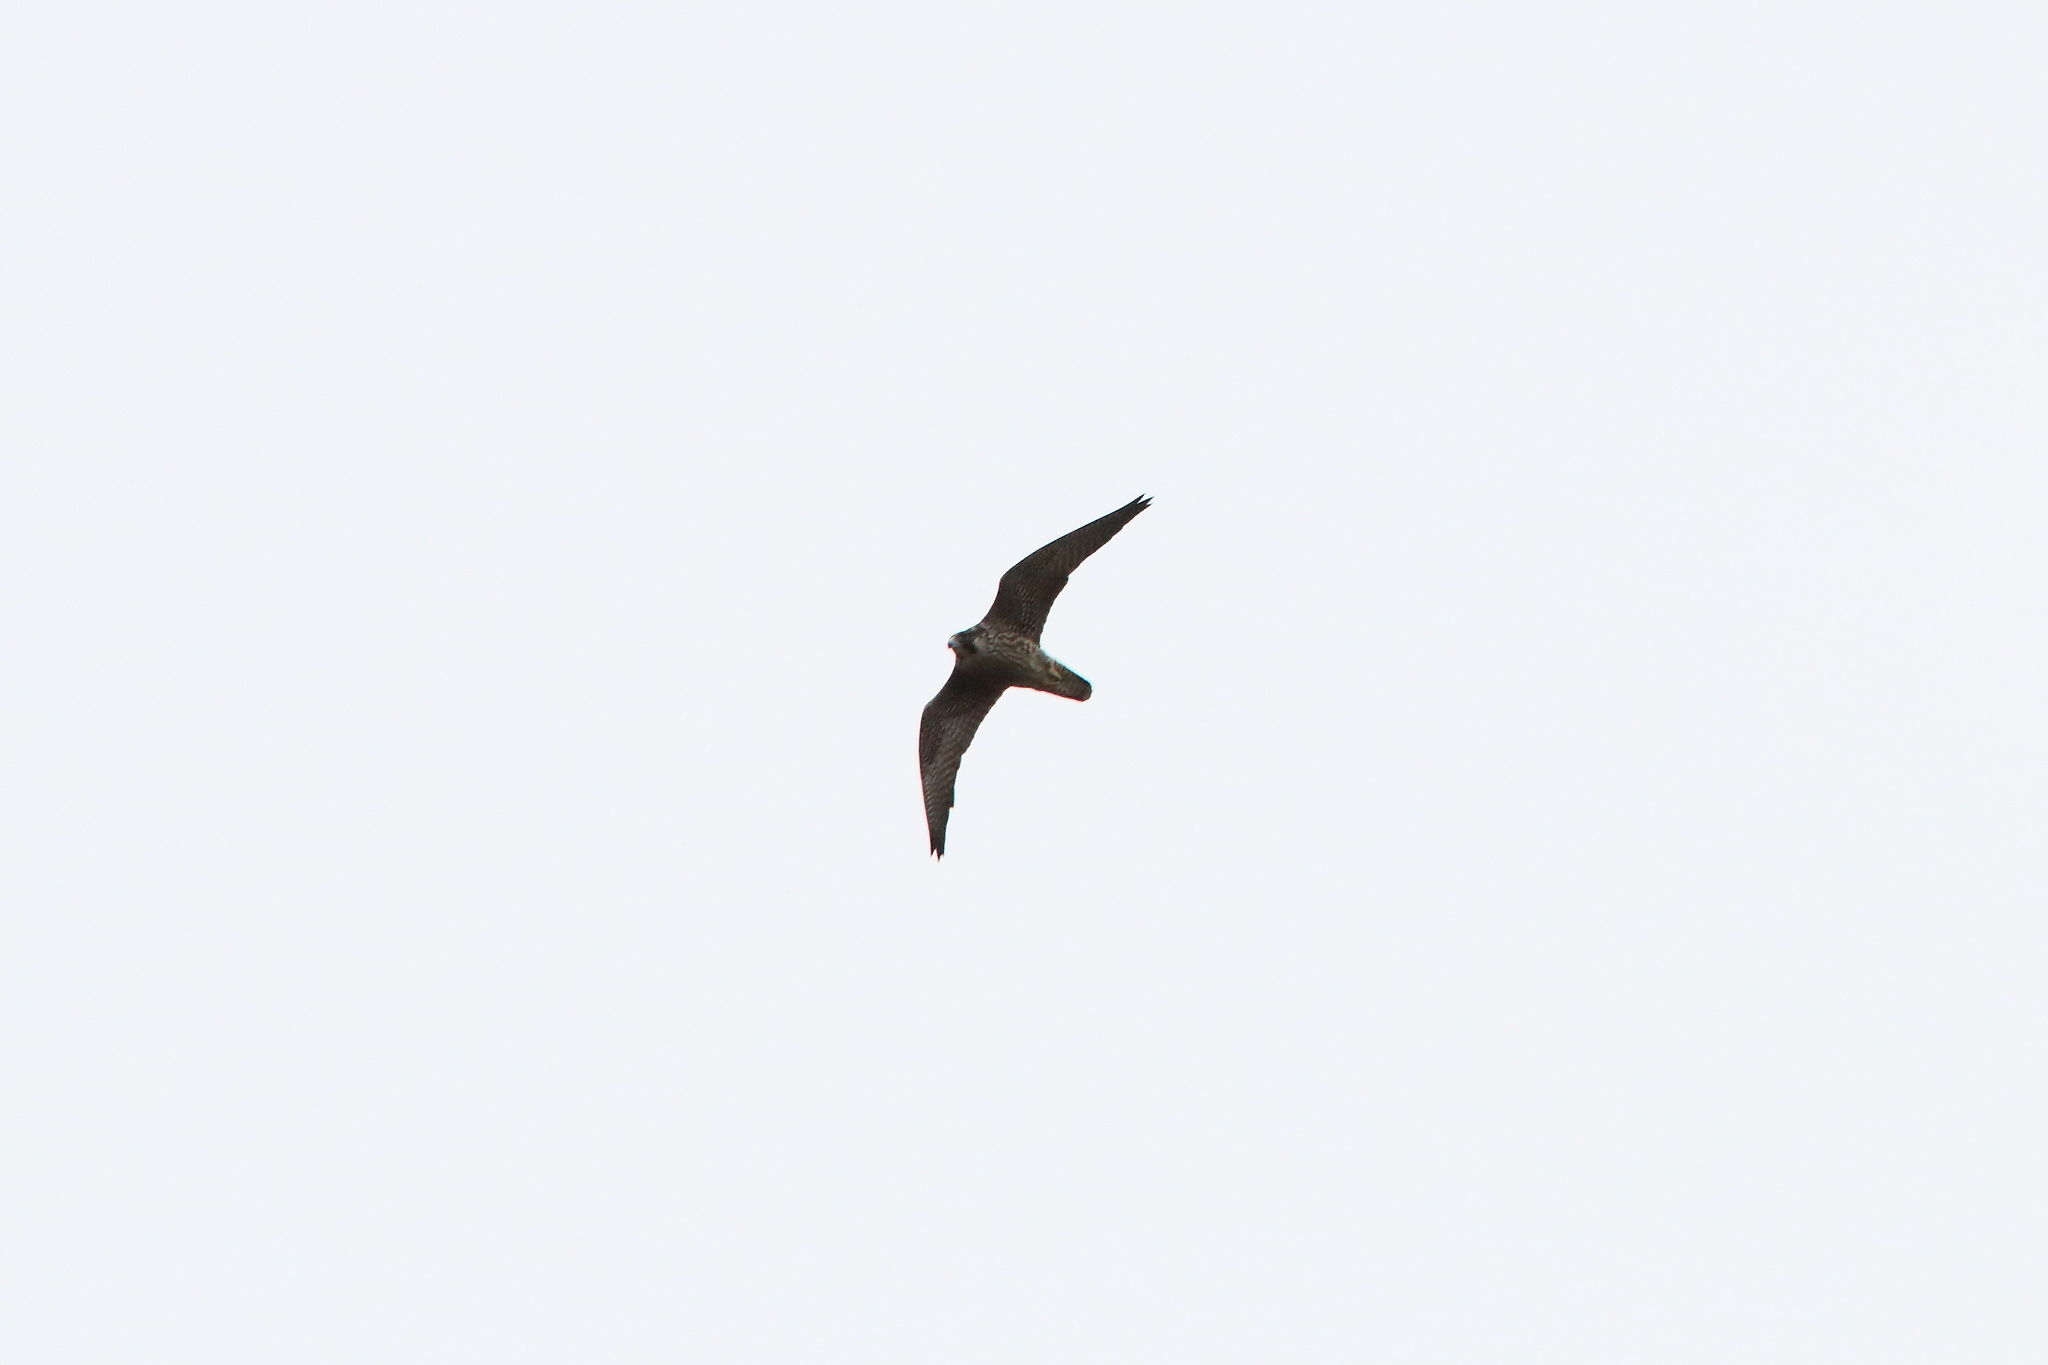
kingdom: Animalia
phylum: Chordata
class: Aves
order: Falconiformes
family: Falconidae
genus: Falco
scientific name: Falco peregrinus
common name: Peregrine falcon
